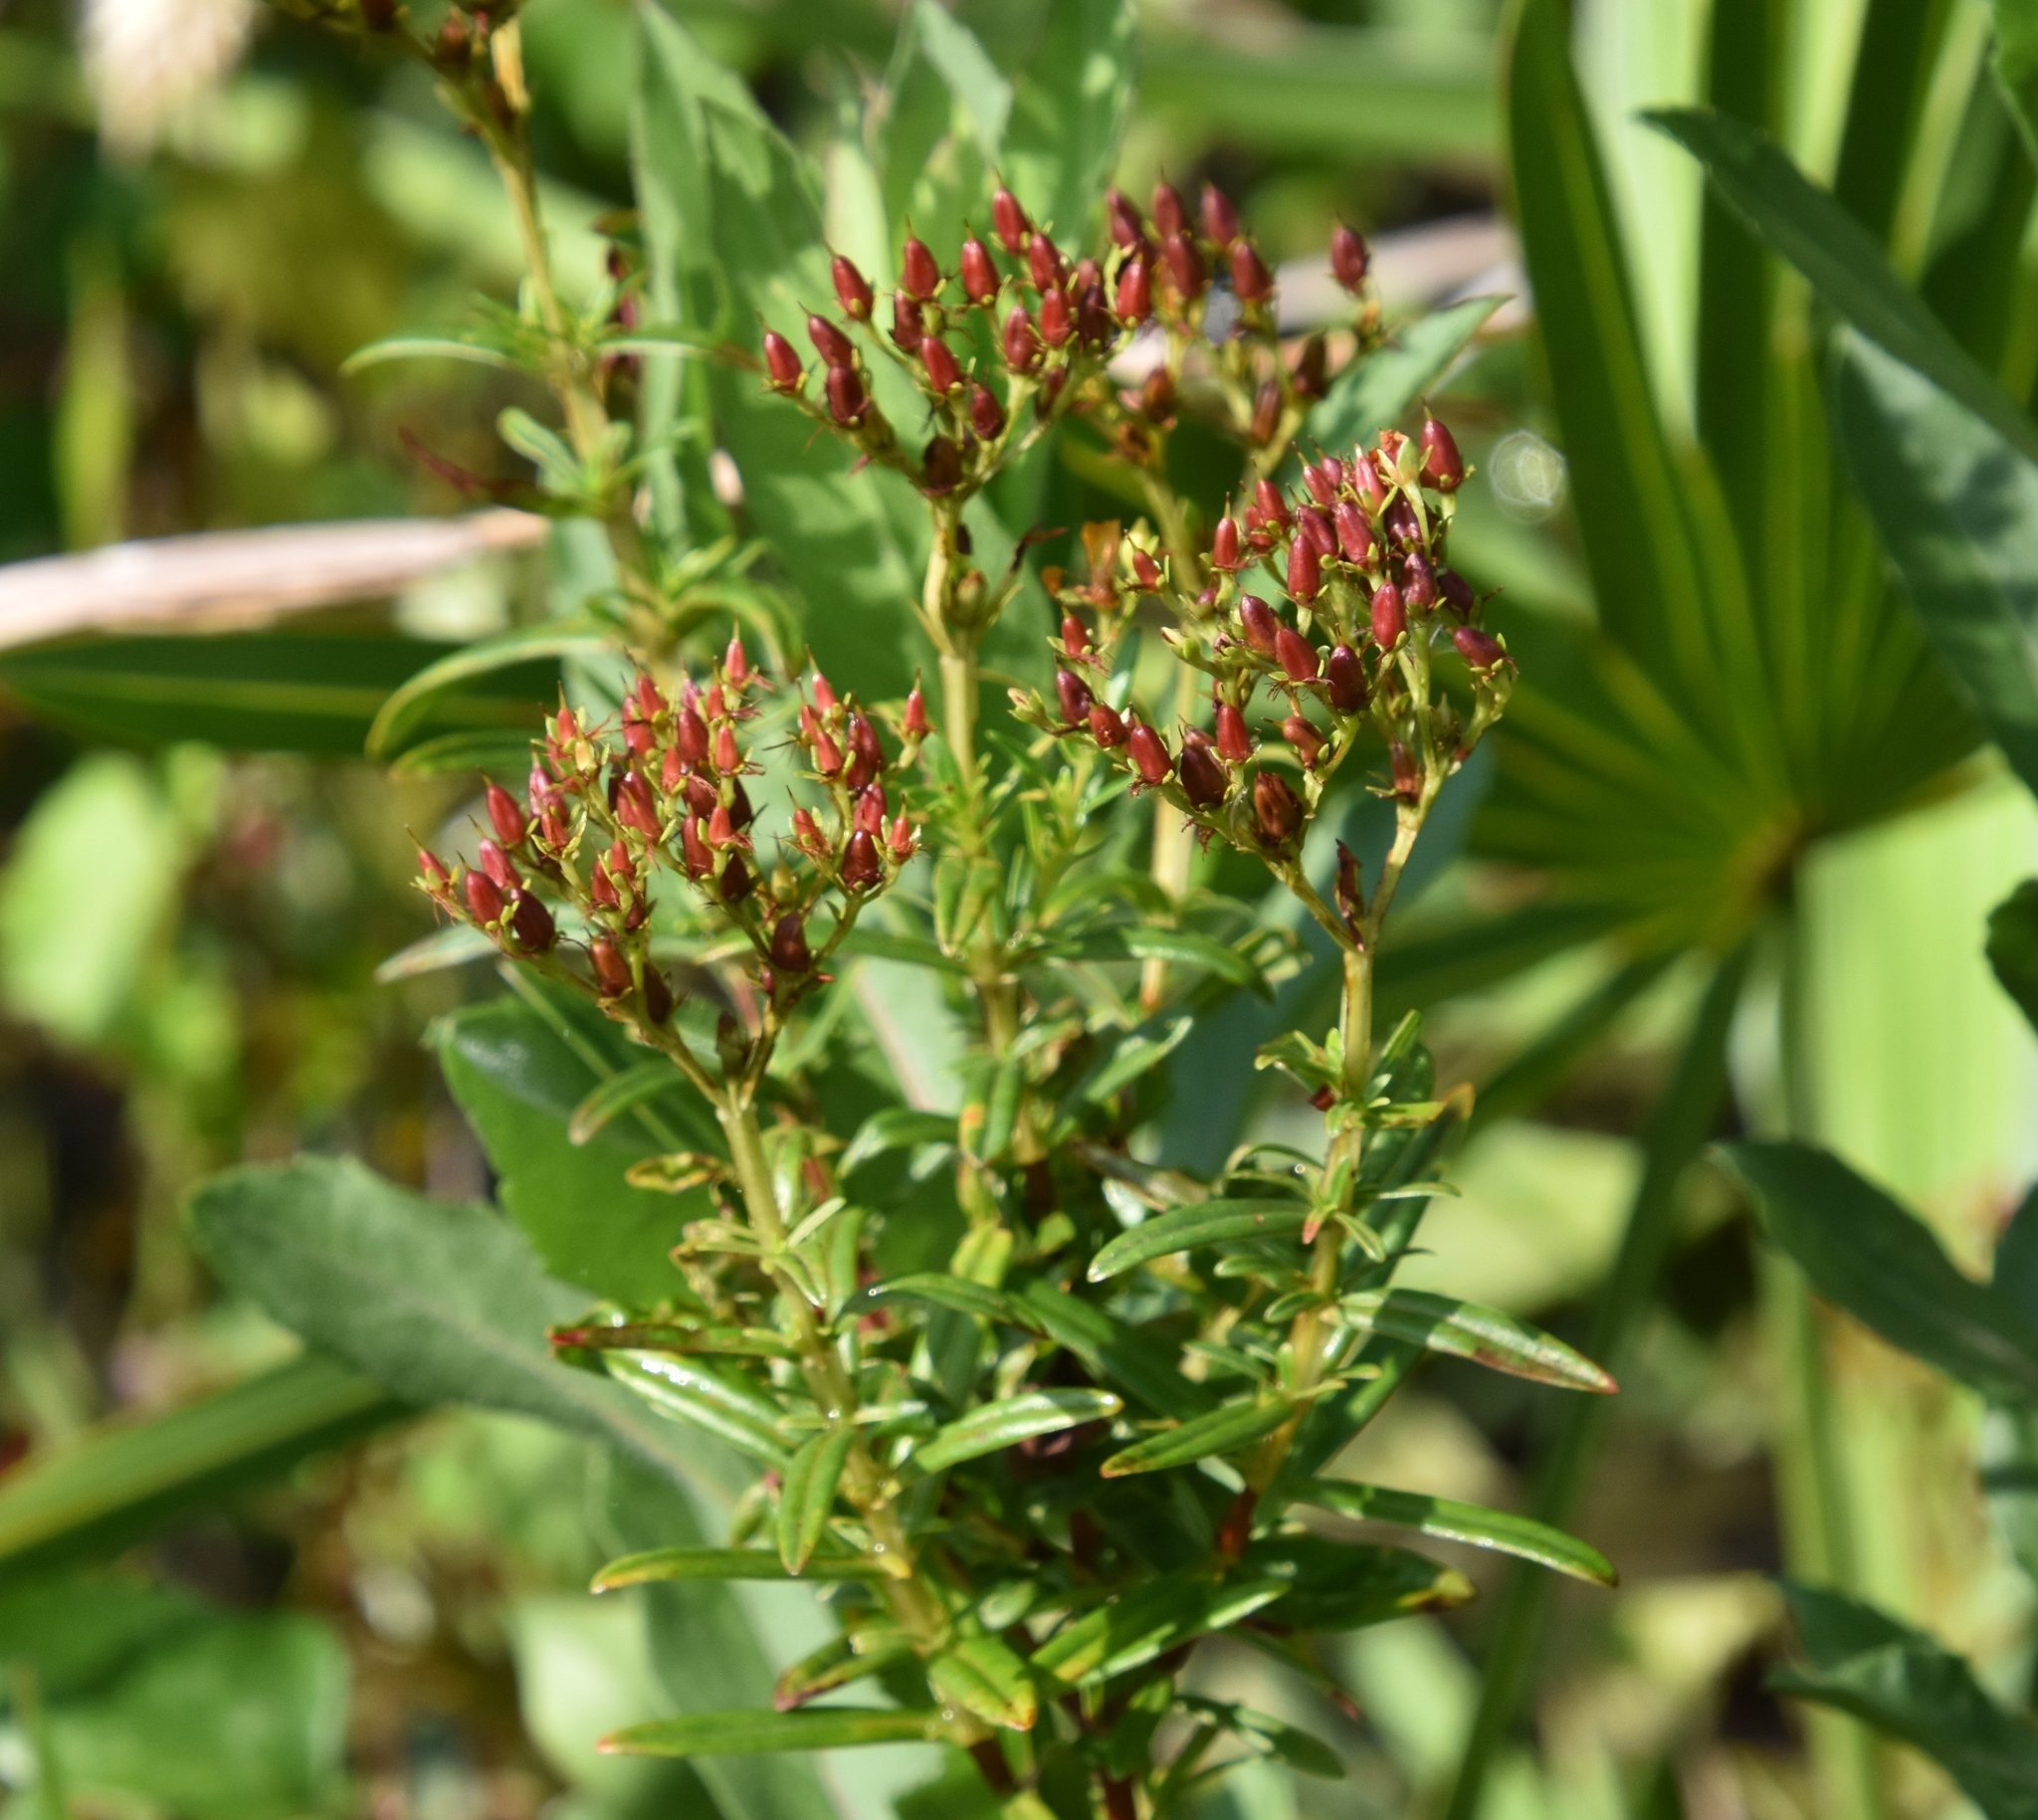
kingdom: Plantae
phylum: Tracheophyta
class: Magnoliopsida
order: Malpighiales
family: Hypericaceae
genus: Hypericum
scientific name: Hypericum cistifolium
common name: Round-pod st. john's-wort
